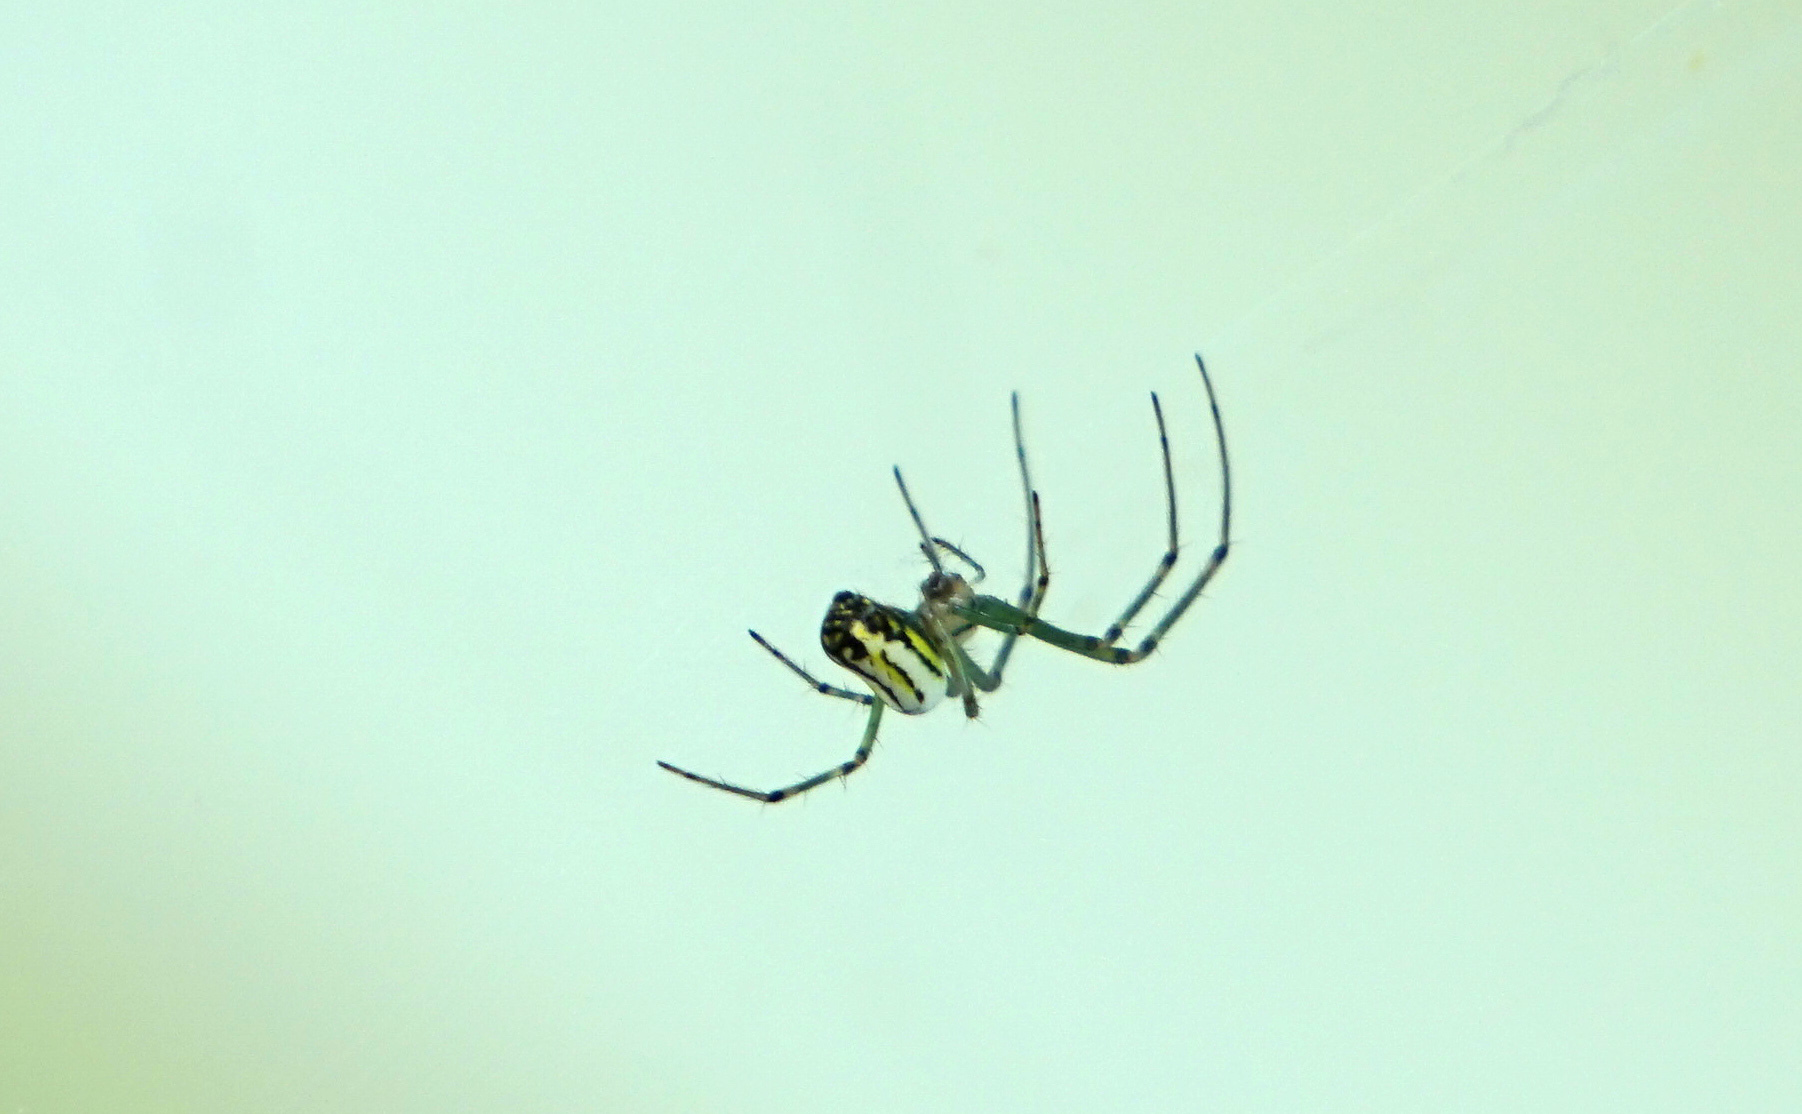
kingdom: Animalia
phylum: Arthropoda
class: Arachnida
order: Araneae
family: Tetragnathidae
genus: Leucauge
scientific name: Leucauge venusta
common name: Longjawed orb weavers
